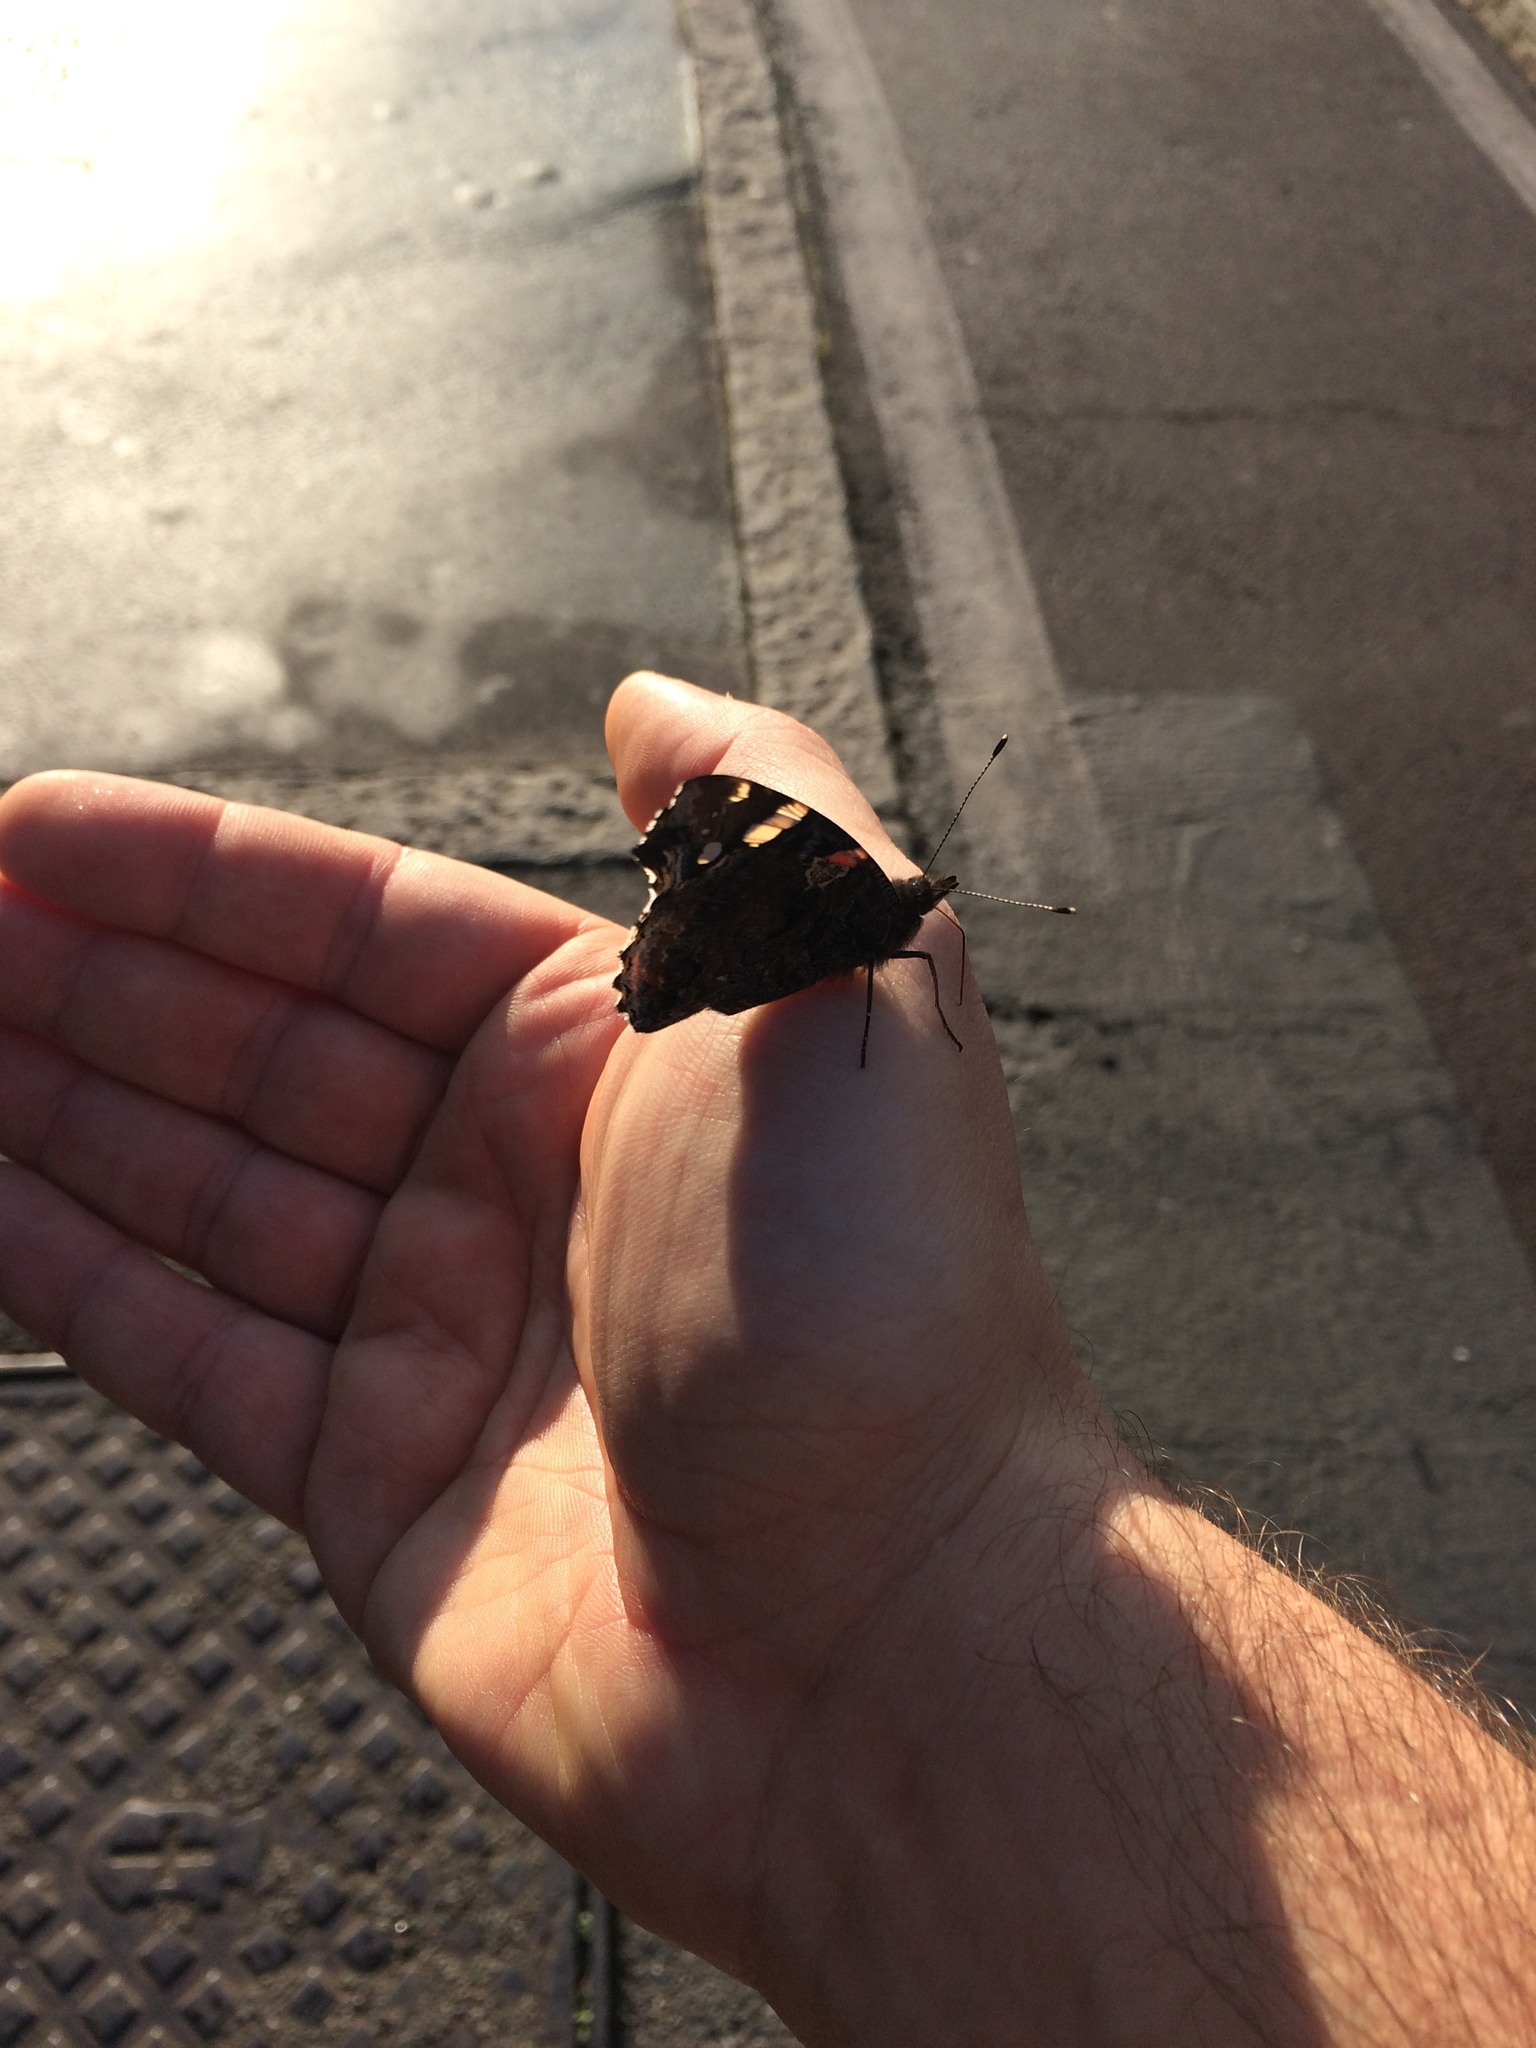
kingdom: Animalia
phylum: Arthropoda
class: Insecta
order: Lepidoptera
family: Nymphalidae
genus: Vanessa
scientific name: Vanessa atalanta
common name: Red admiral
